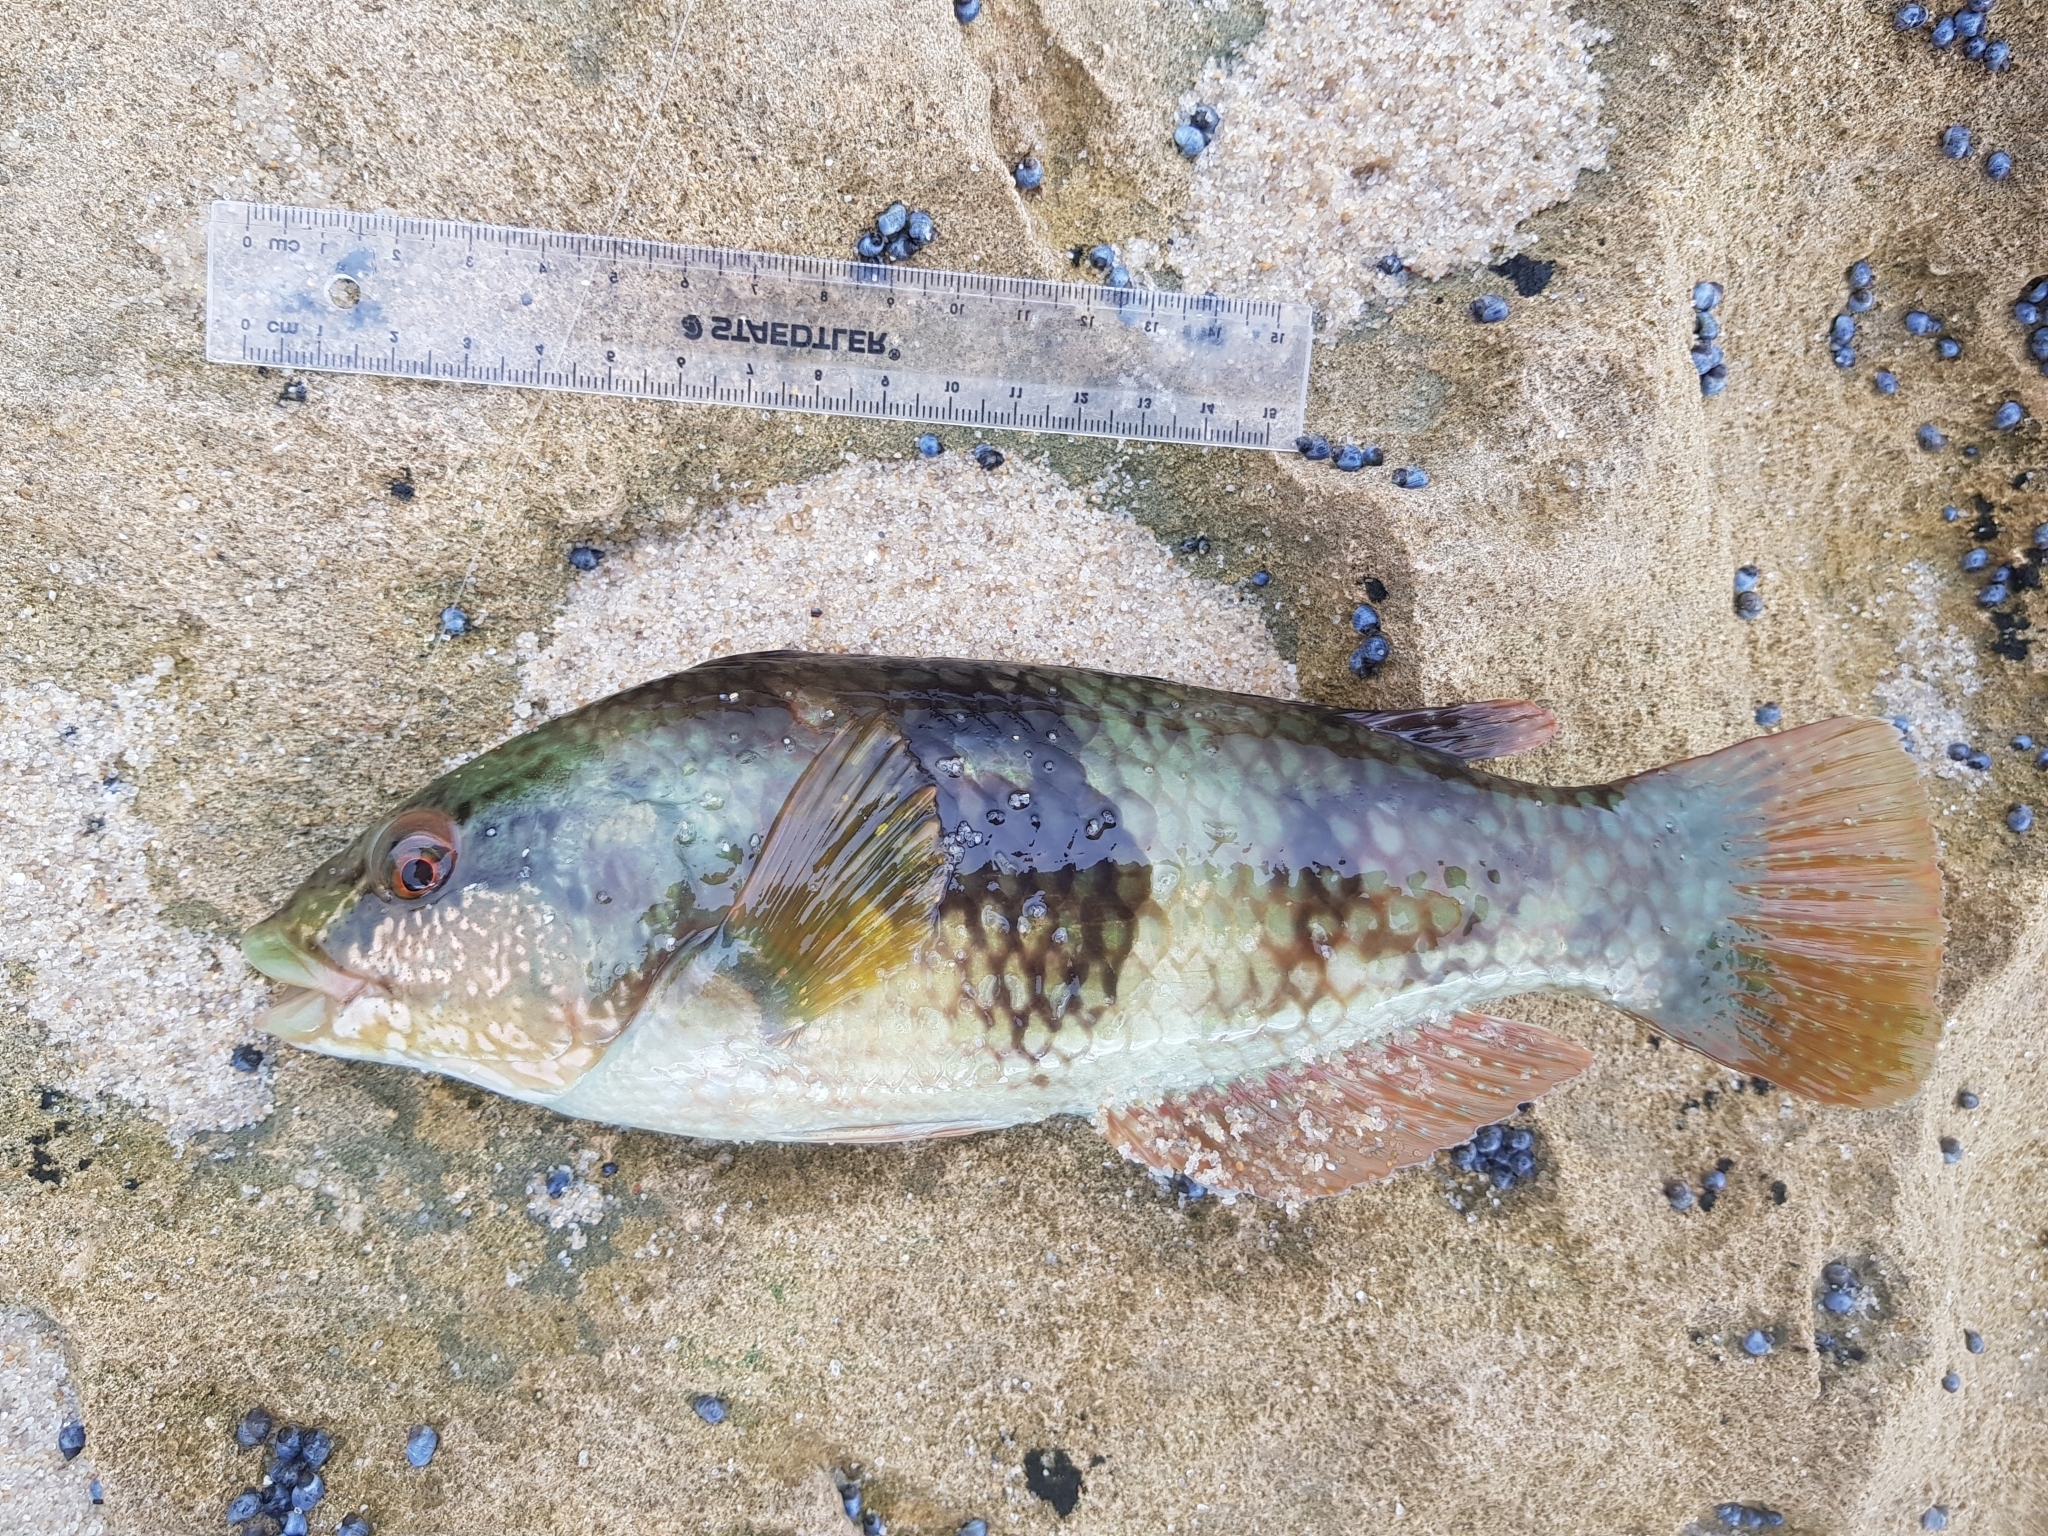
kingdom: Animalia
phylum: Chordata
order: Perciformes
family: Labridae
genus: Notolabrus
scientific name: Notolabrus tetricus
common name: Blue-throated parrotfish
